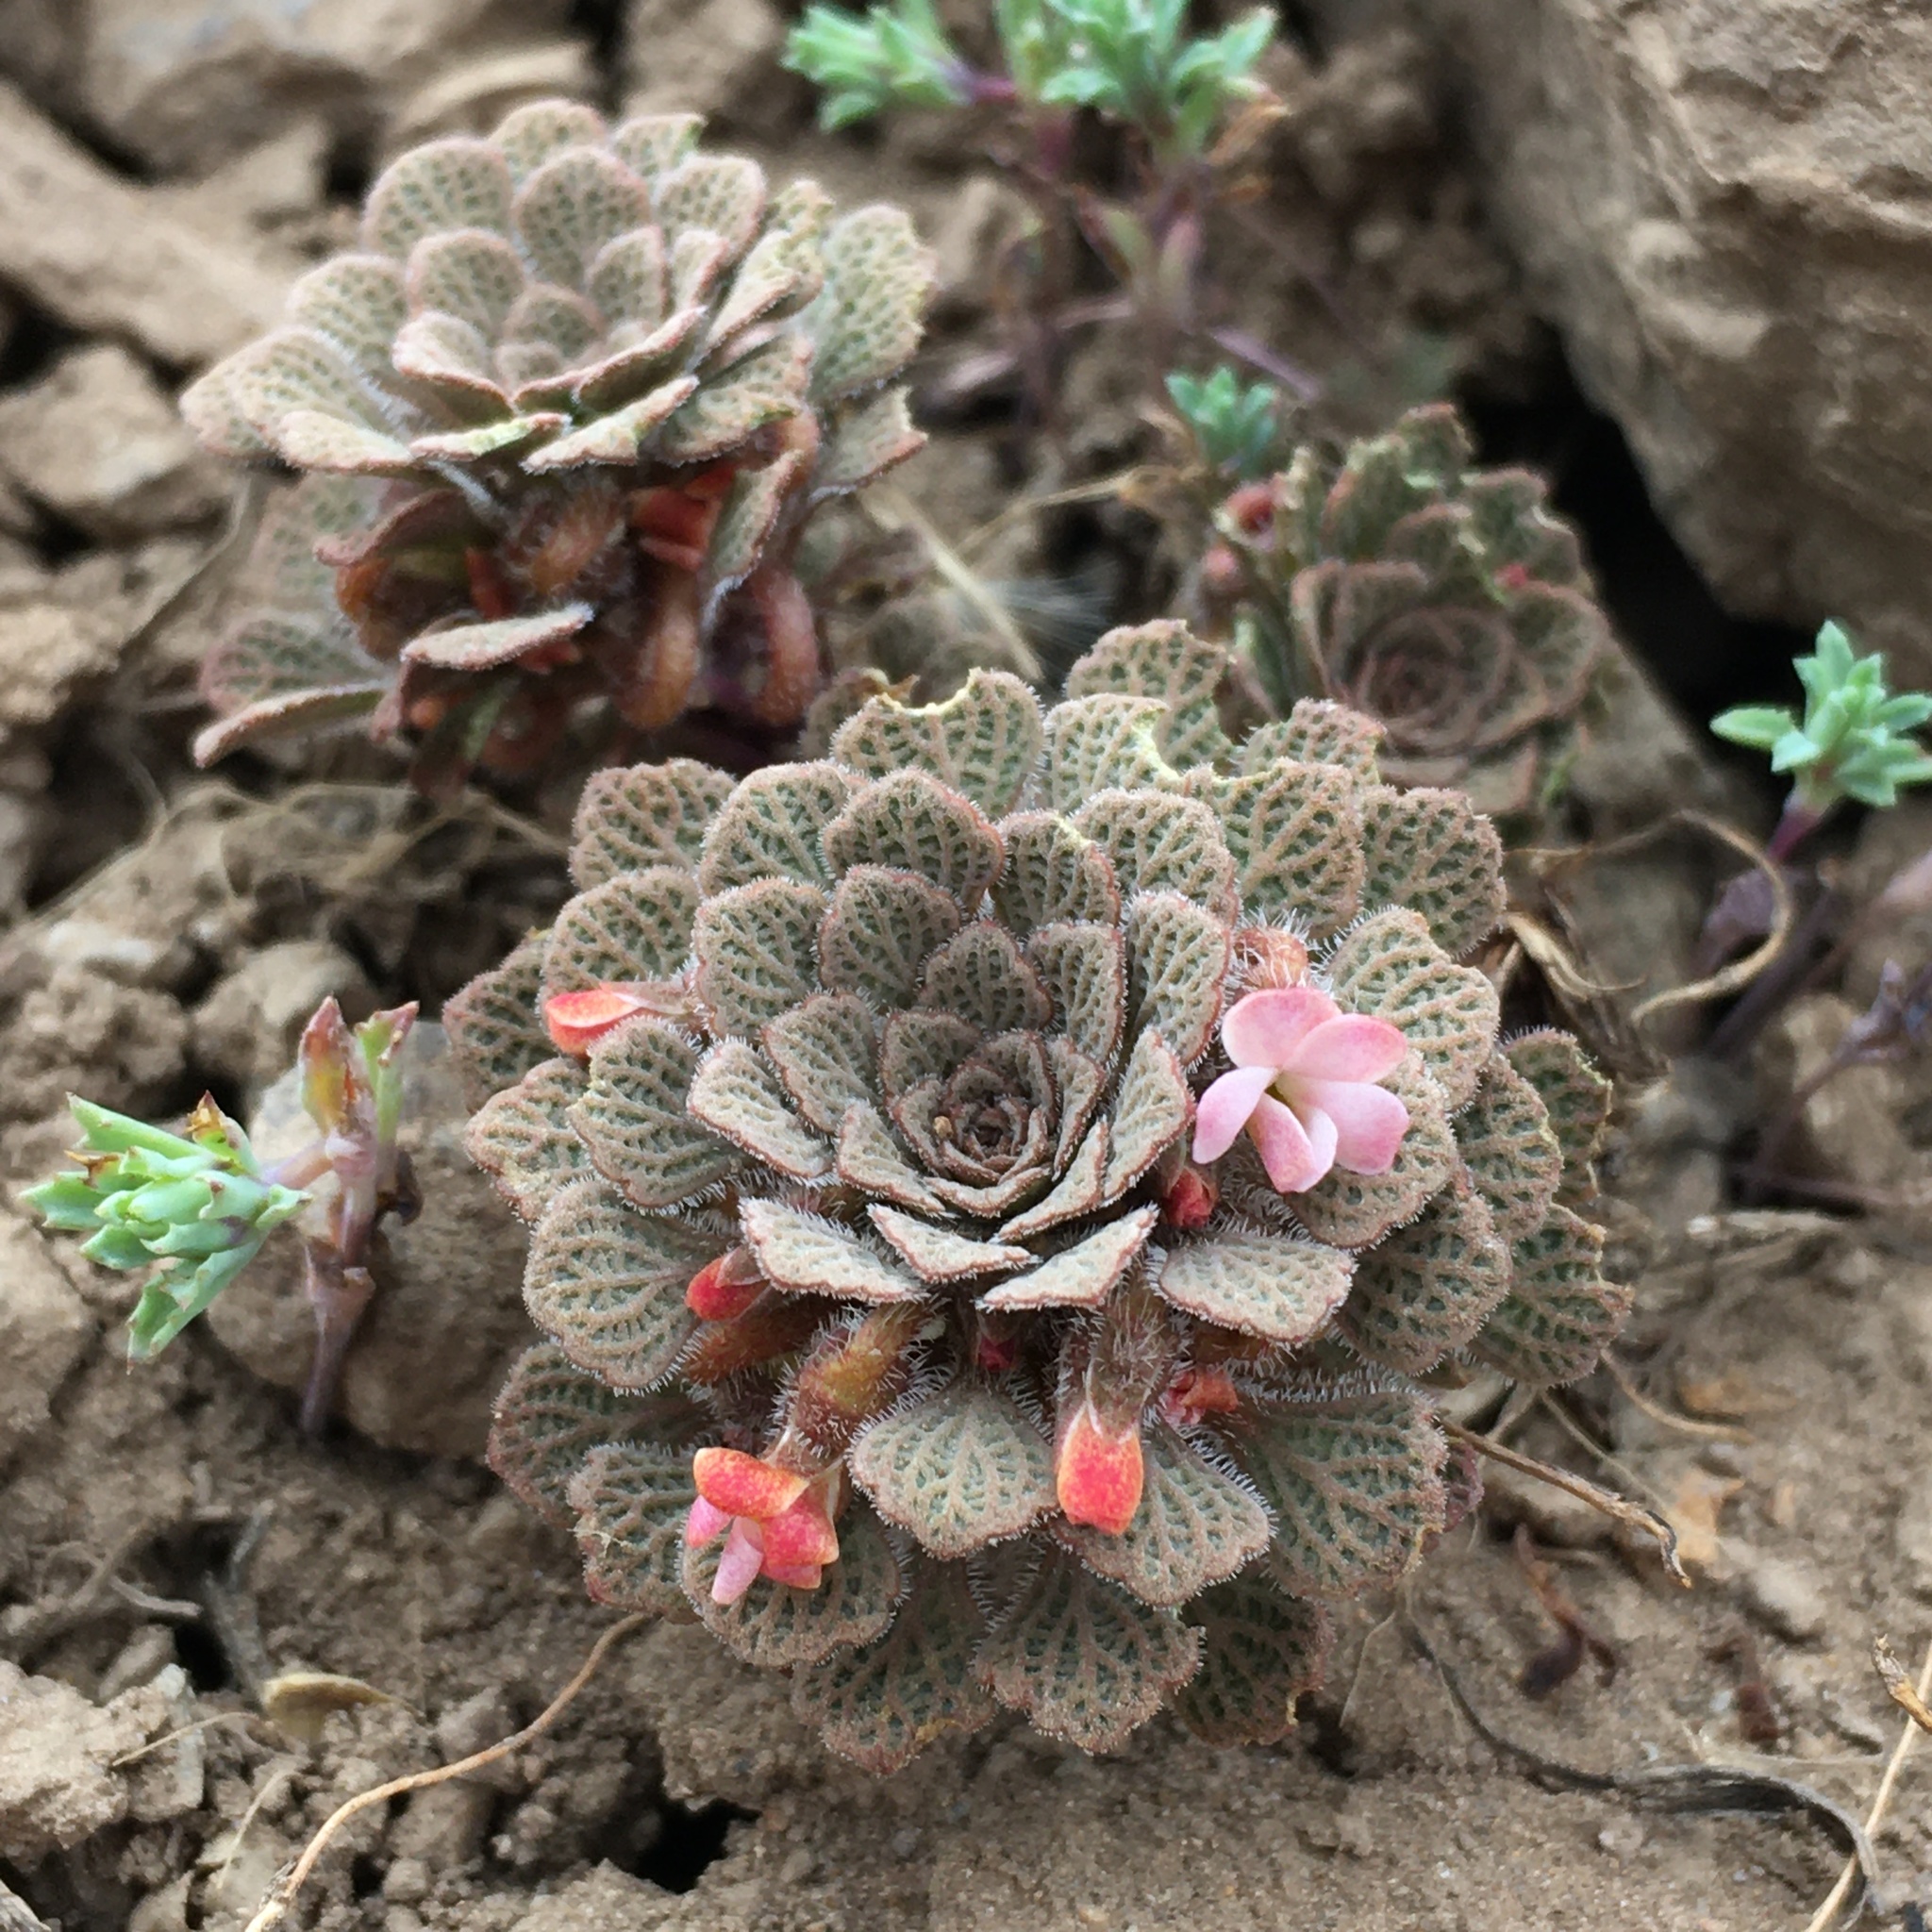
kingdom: Plantae
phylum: Tracheophyta
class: Magnoliopsida
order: Malpighiales
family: Violaceae
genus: Viola
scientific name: Viola
